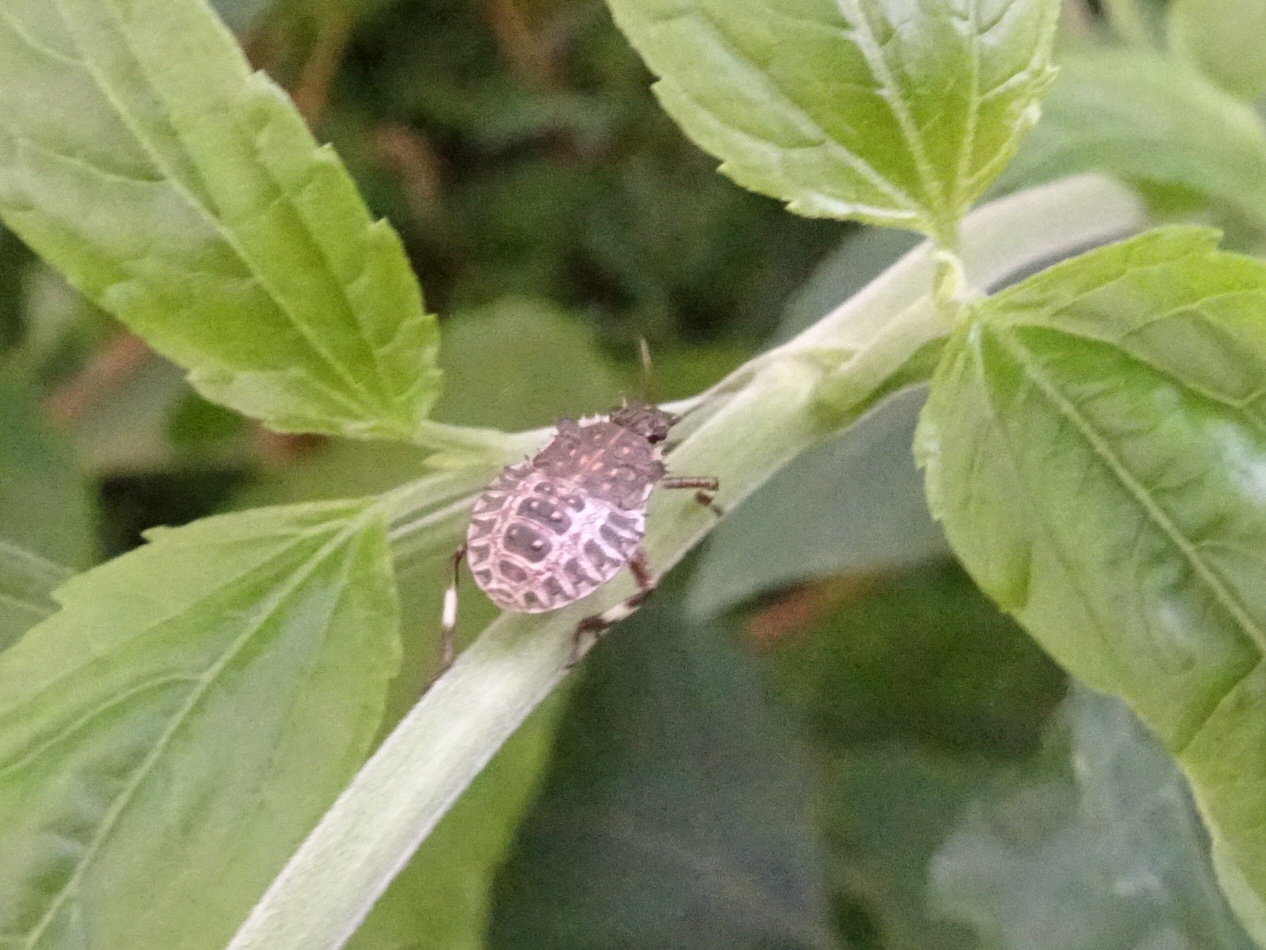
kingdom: Animalia
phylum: Arthropoda
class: Insecta
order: Hemiptera
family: Pentatomidae
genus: Halyomorpha
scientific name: Halyomorpha halys
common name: Brown marmorated stink bug
